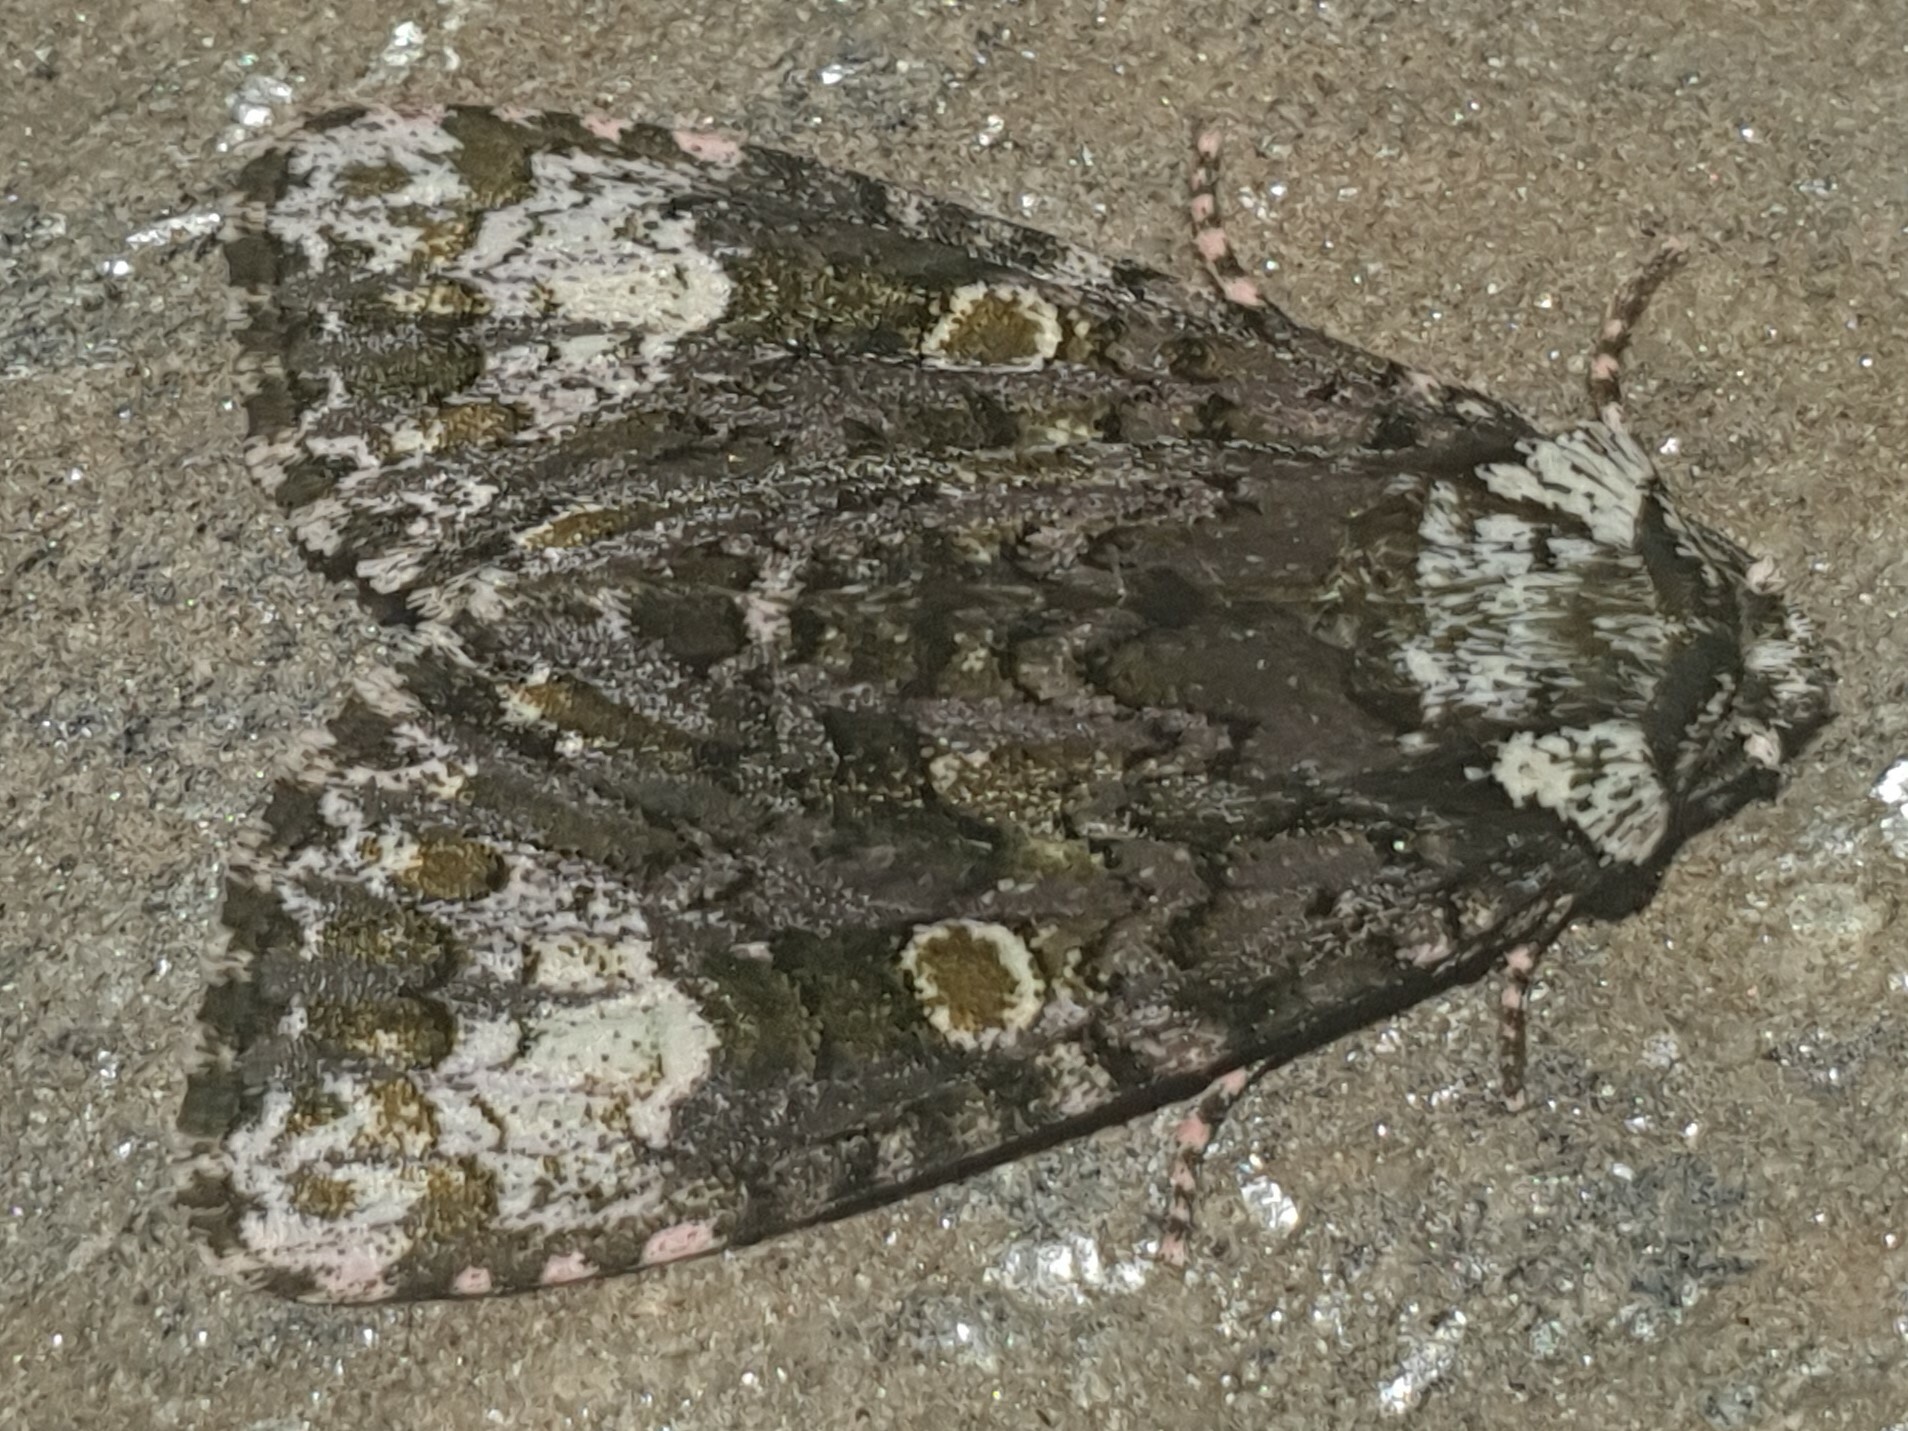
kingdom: Animalia
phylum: Arthropoda
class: Insecta
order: Lepidoptera
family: Noctuidae
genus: Craniophora
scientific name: Craniophora ligustri
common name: Coronet
